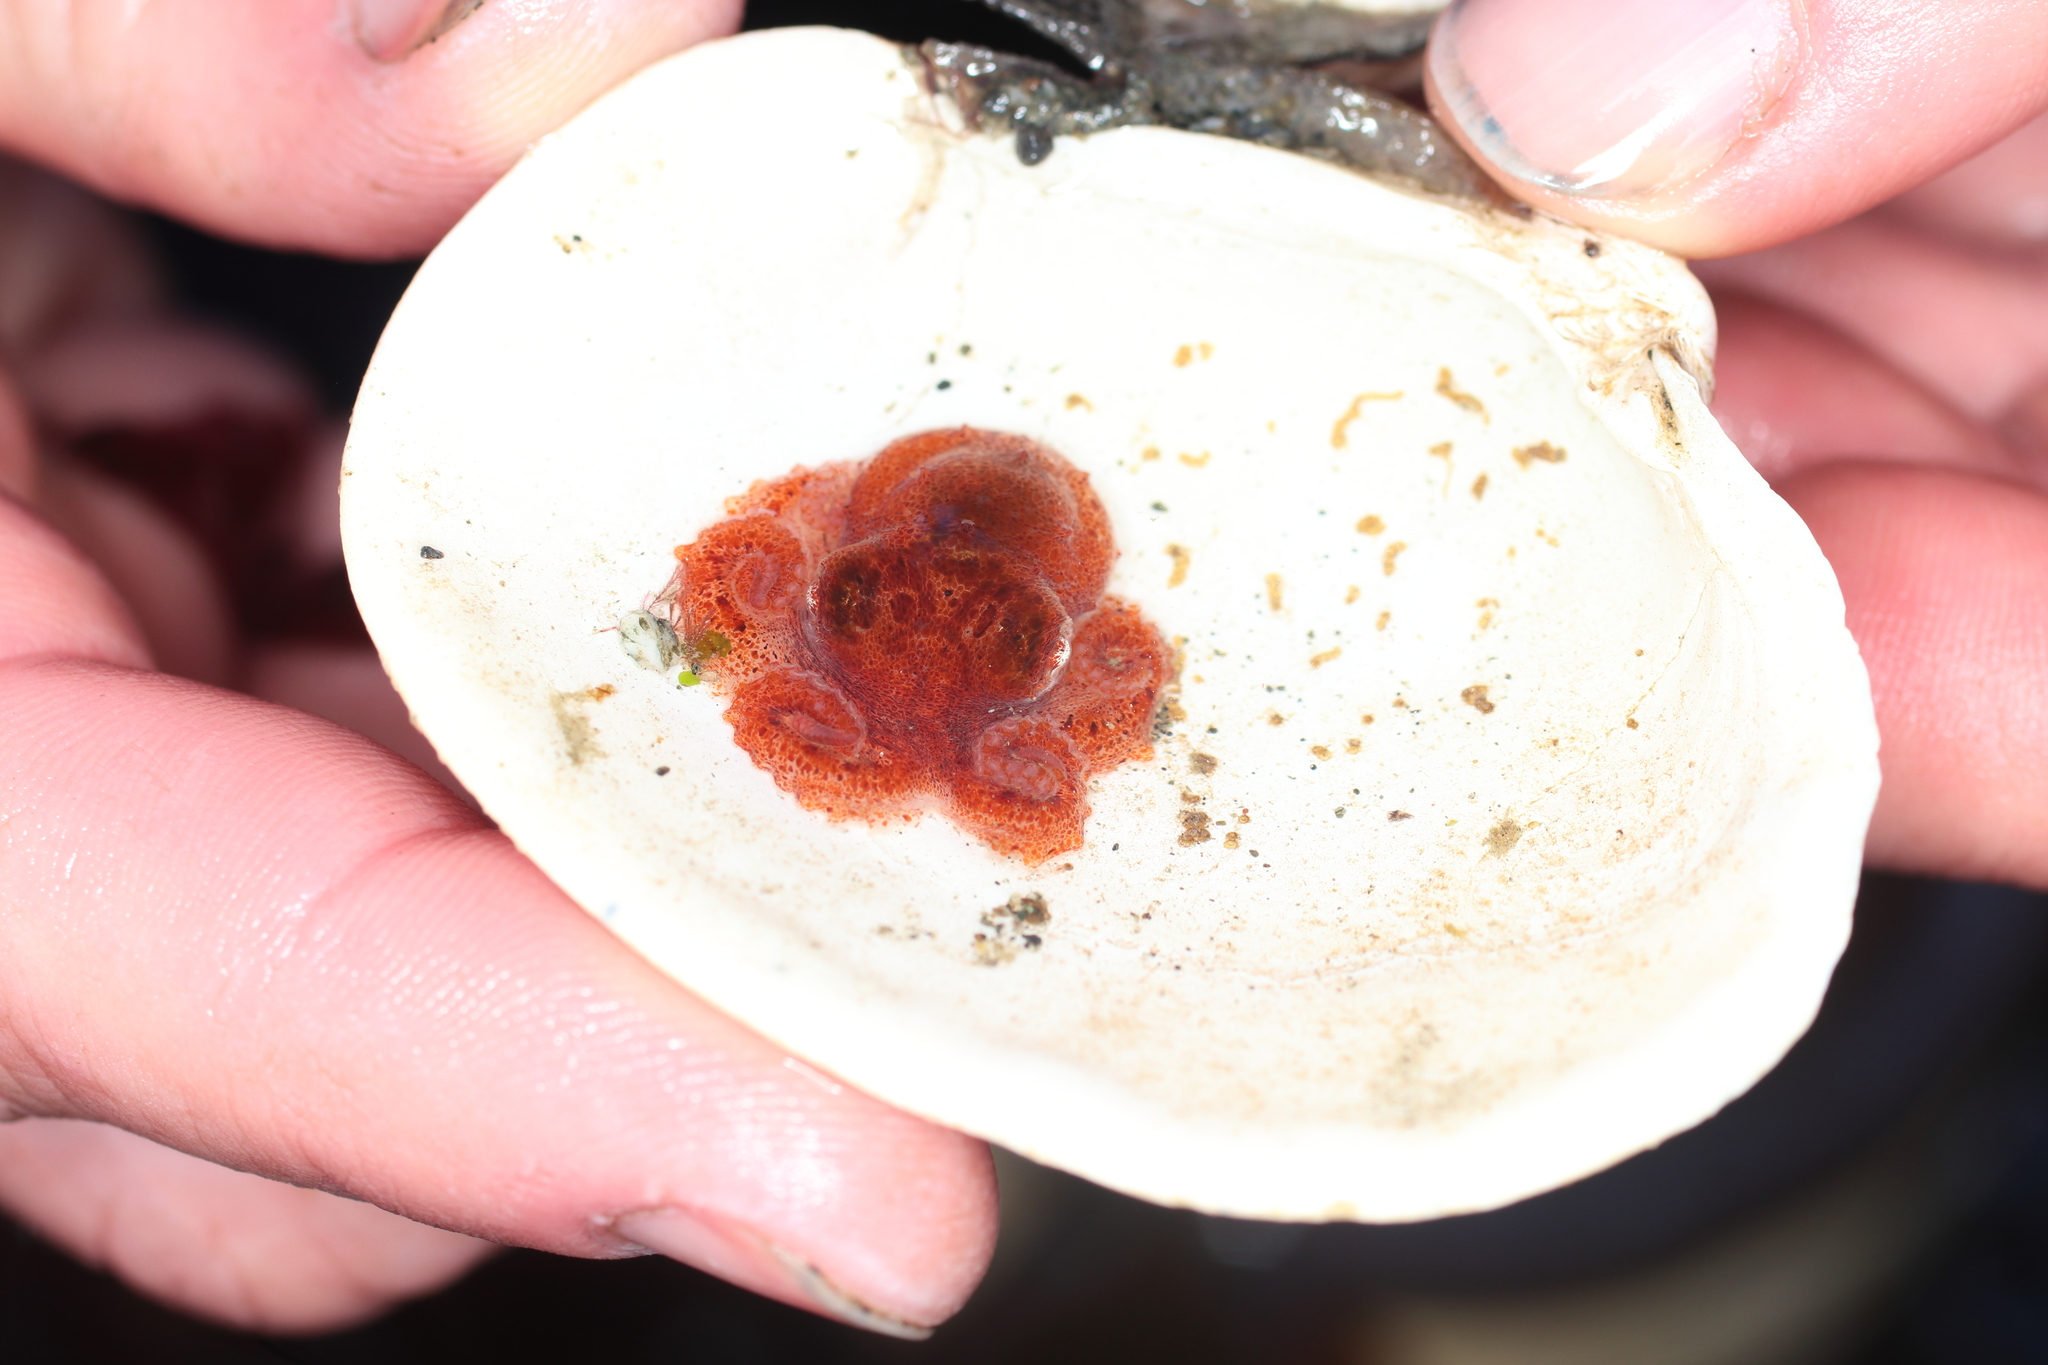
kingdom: Animalia
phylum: Mollusca
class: Cephalopoda
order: Octopoda
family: Enteroctopodidae
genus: Enteroctopus
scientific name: Enteroctopus dofleini
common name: Giant north pacific octopus
